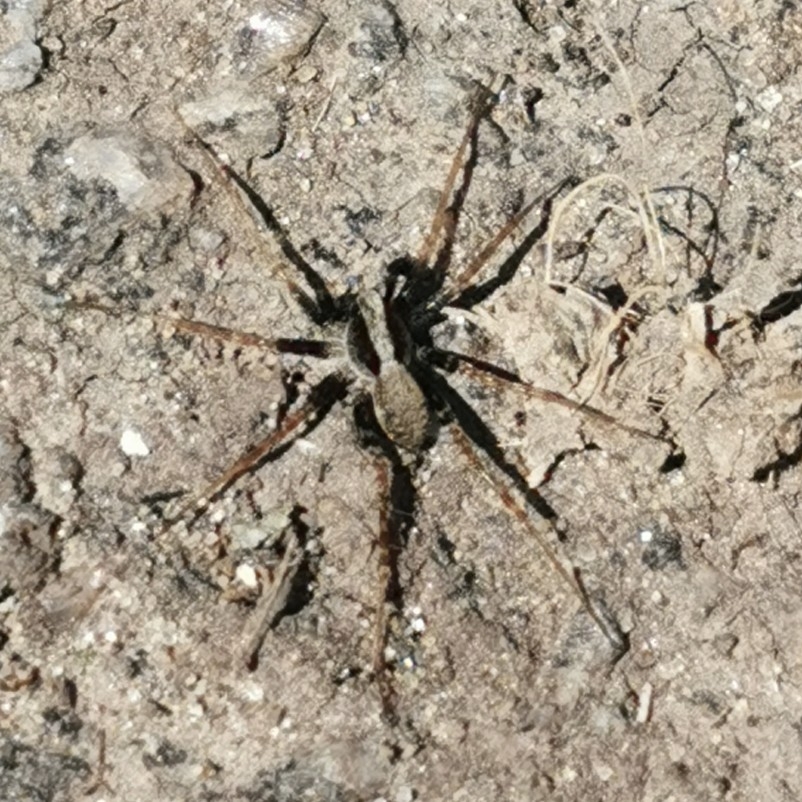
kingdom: Animalia
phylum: Arthropoda
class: Arachnida
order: Araneae
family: Lycosidae
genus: Pardosa
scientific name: Pardosa
